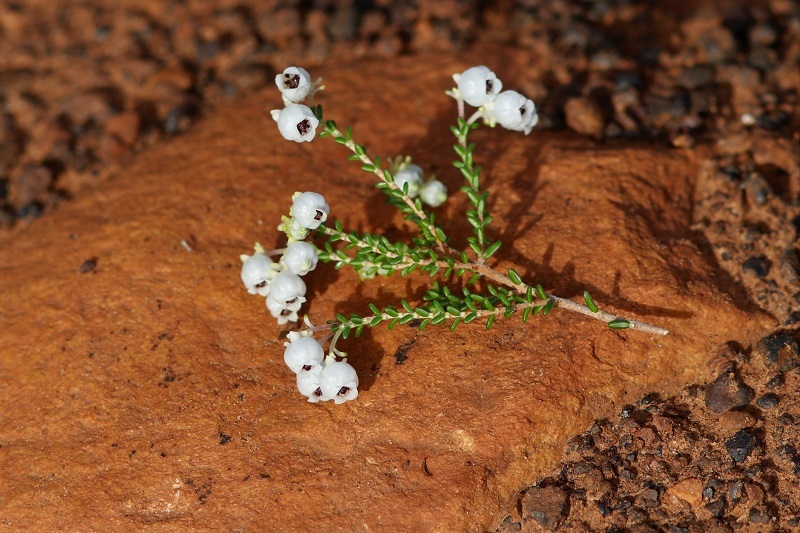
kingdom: Plantae
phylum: Tracheophyta
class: Magnoliopsida
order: Ericales
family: Ericaceae
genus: Erica
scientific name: Erica formosa
